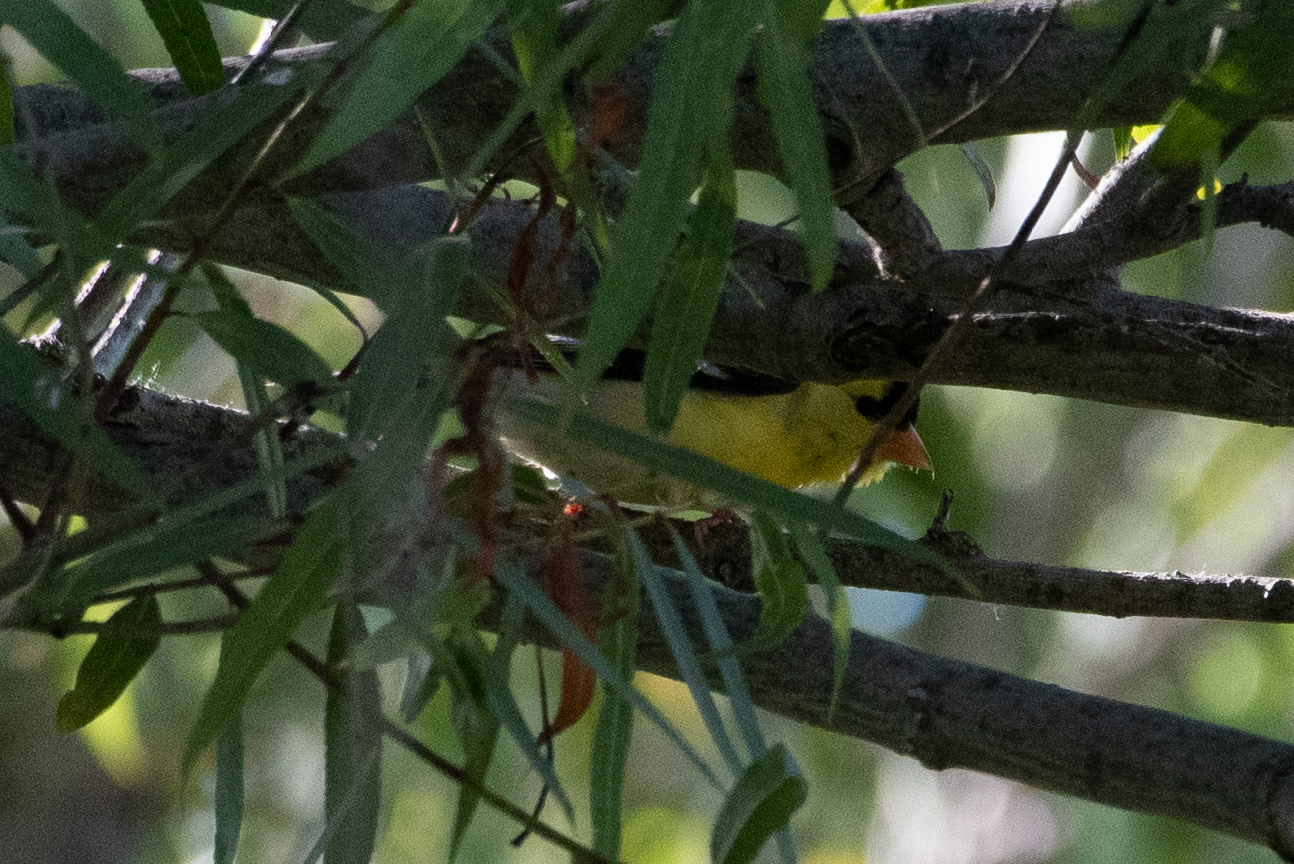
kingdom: Animalia
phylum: Chordata
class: Aves
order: Passeriformes
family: Fringillidae
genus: Spinus
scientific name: Spinus tristis
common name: American goldfinch
